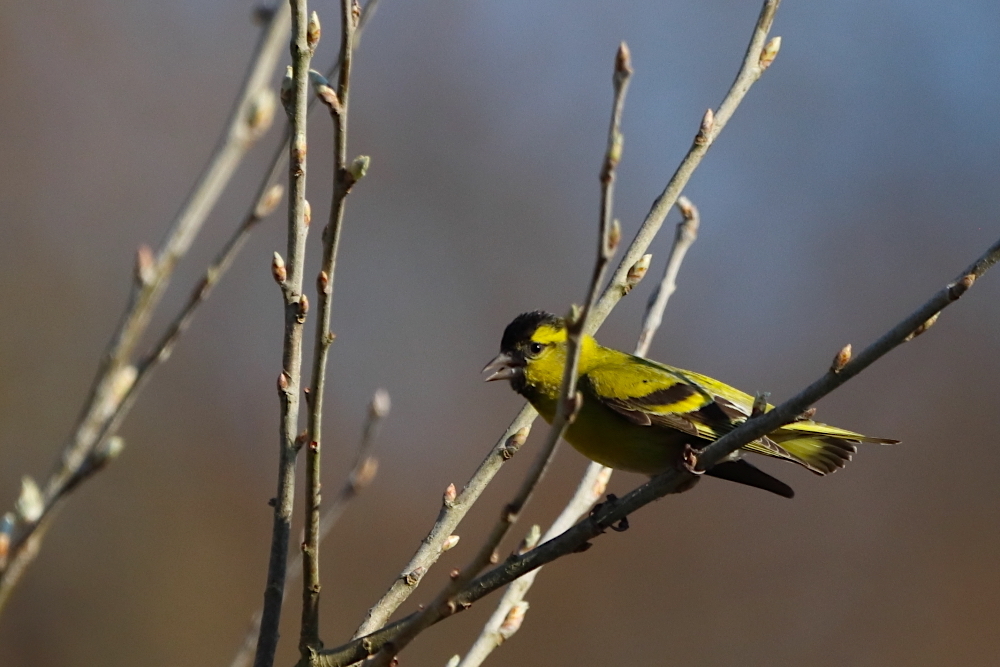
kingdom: Animalia
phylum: Chordata
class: Aves
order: Passeriformes
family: Fringillidae
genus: Spinus
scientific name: Spinus spinus
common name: Eurasian siskin
